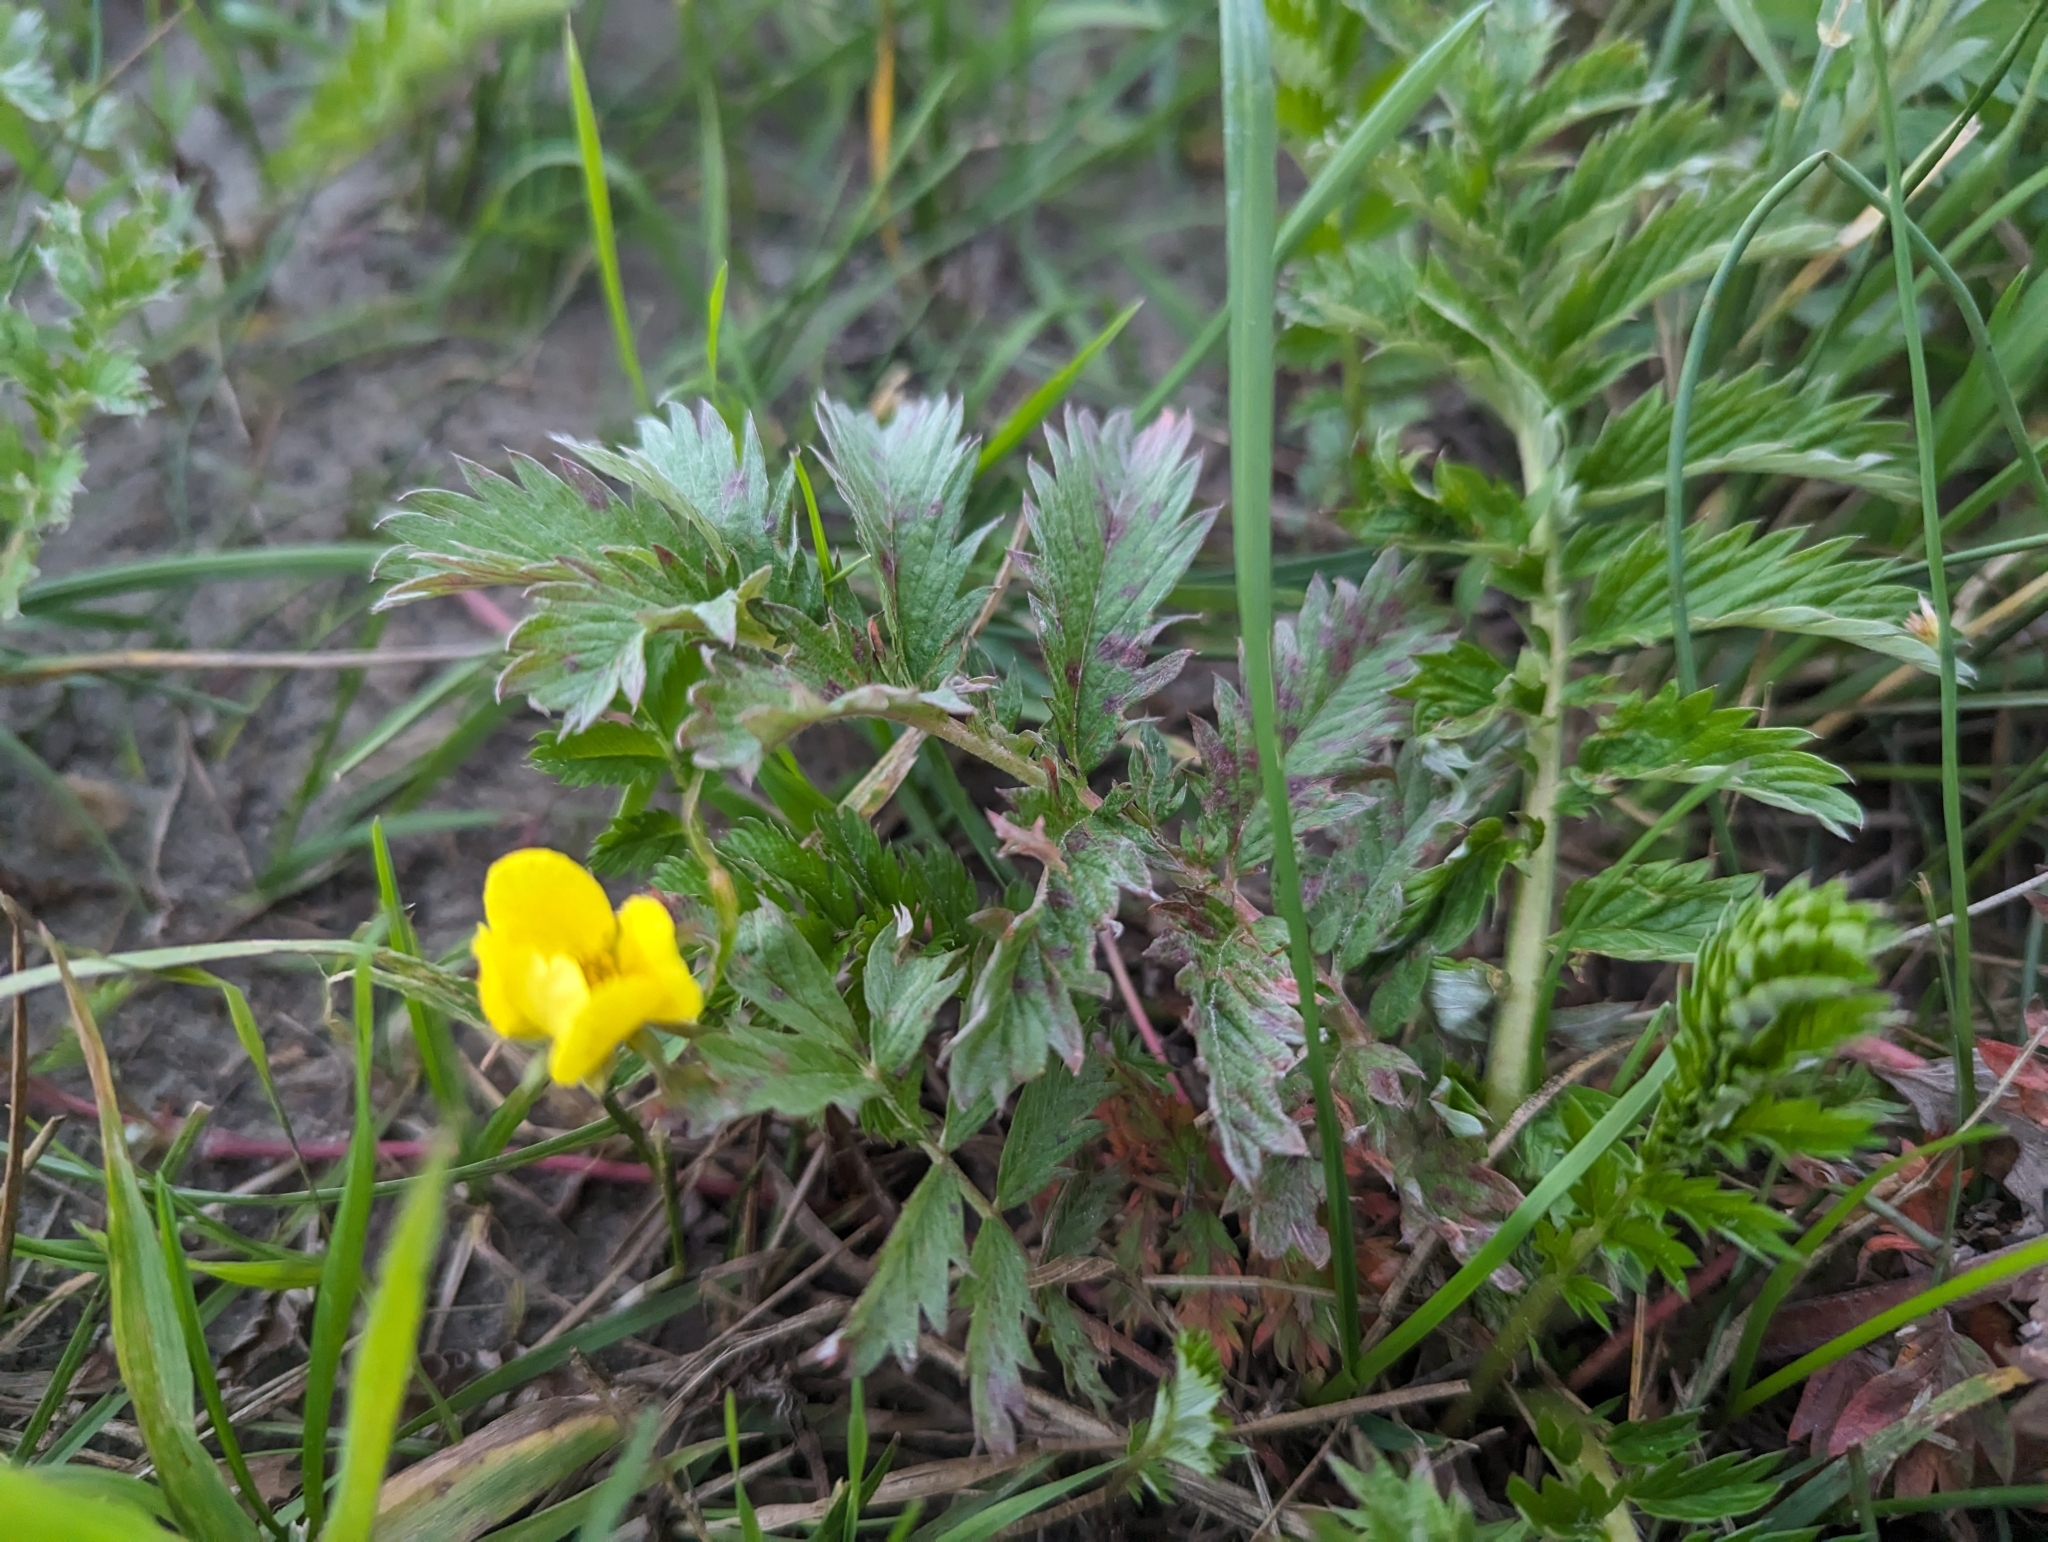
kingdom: Plantae
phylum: Tracheophyta
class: Magnoliopsida
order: Rosales
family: Rosaceae
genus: Argentina
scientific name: Argentina anserina
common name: Common silverweed
